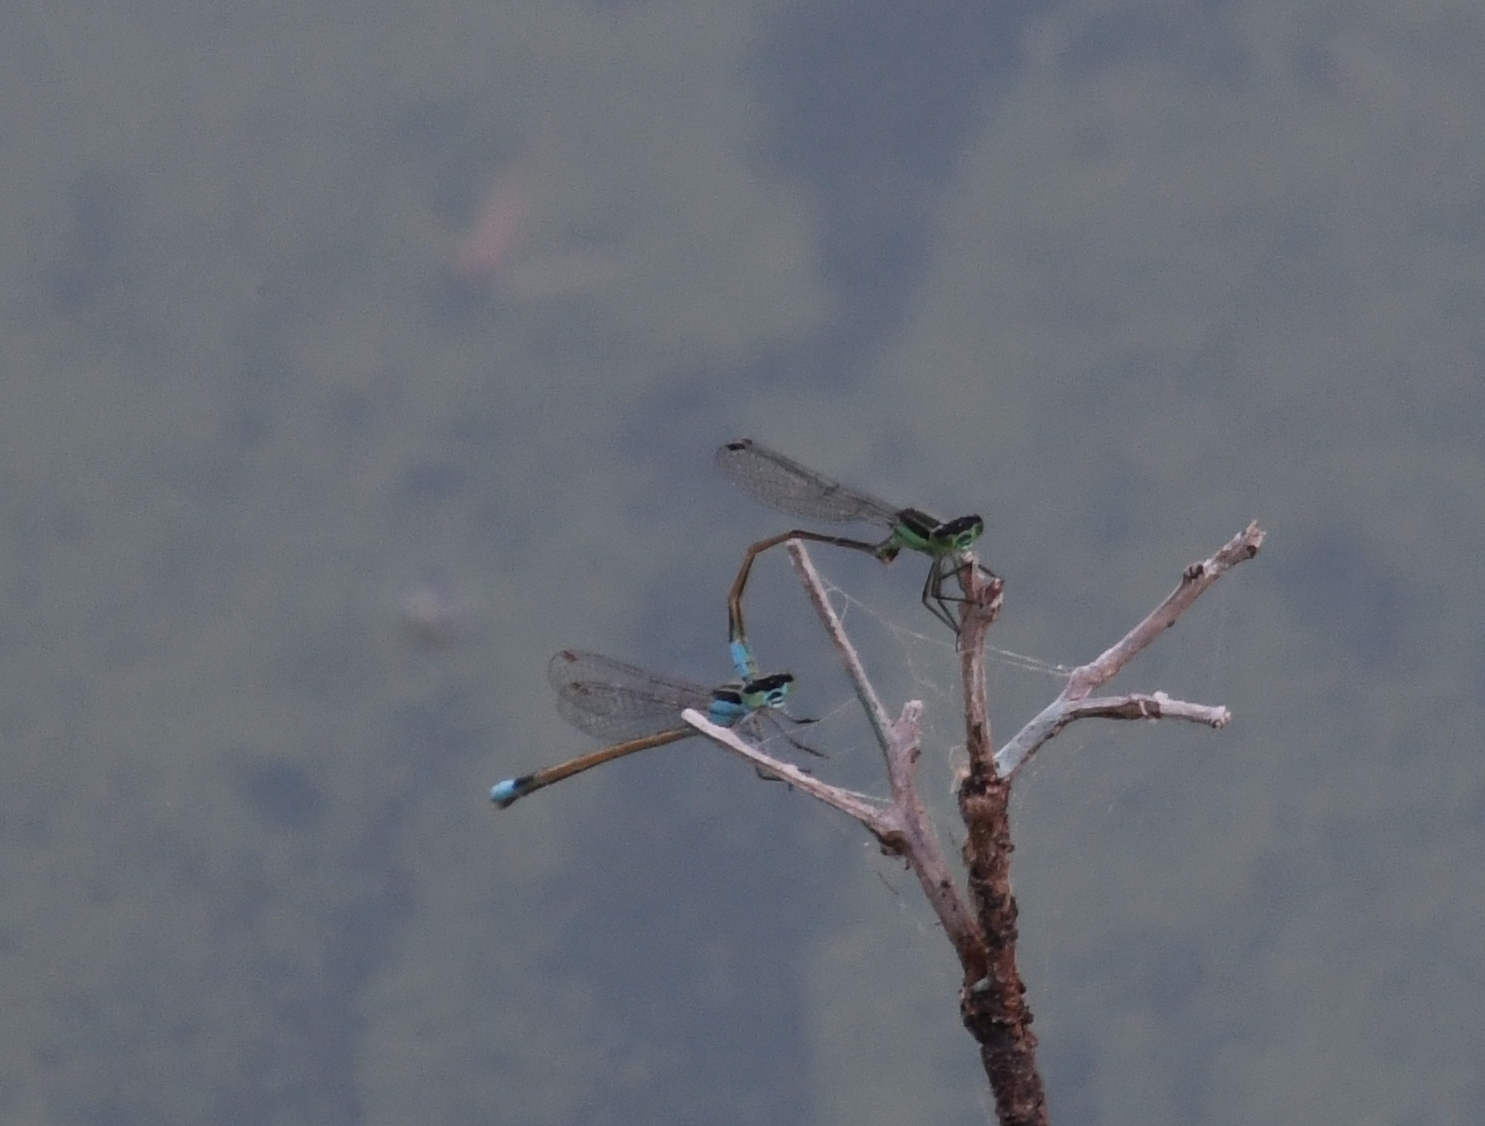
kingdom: Animalia
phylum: Arthropoda
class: Insecta
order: Odonata
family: Coenagrionidae
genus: Ischnura
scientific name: Ischnura ramburii
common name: Rambur's forktail
